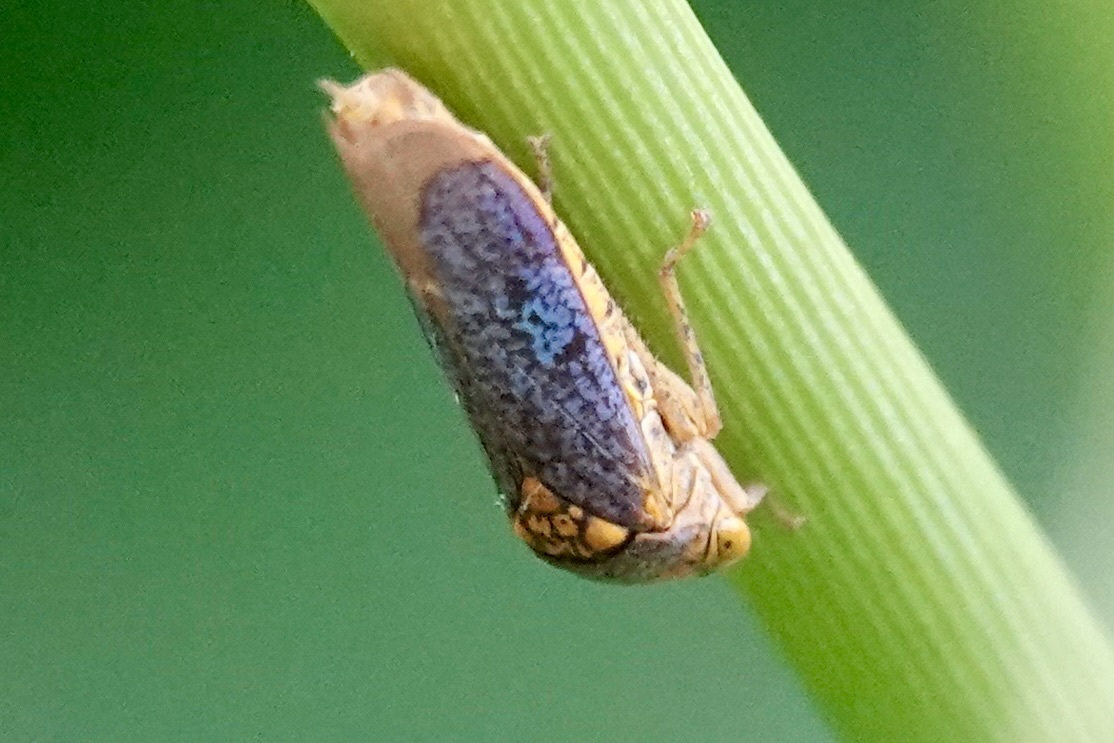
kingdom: Animalia
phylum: Arthropoda
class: Insecta
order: Hemiptera
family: Cicadellidae
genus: Oncometopia
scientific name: Oncometopia orbona
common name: Broad-headed sharpshooter
